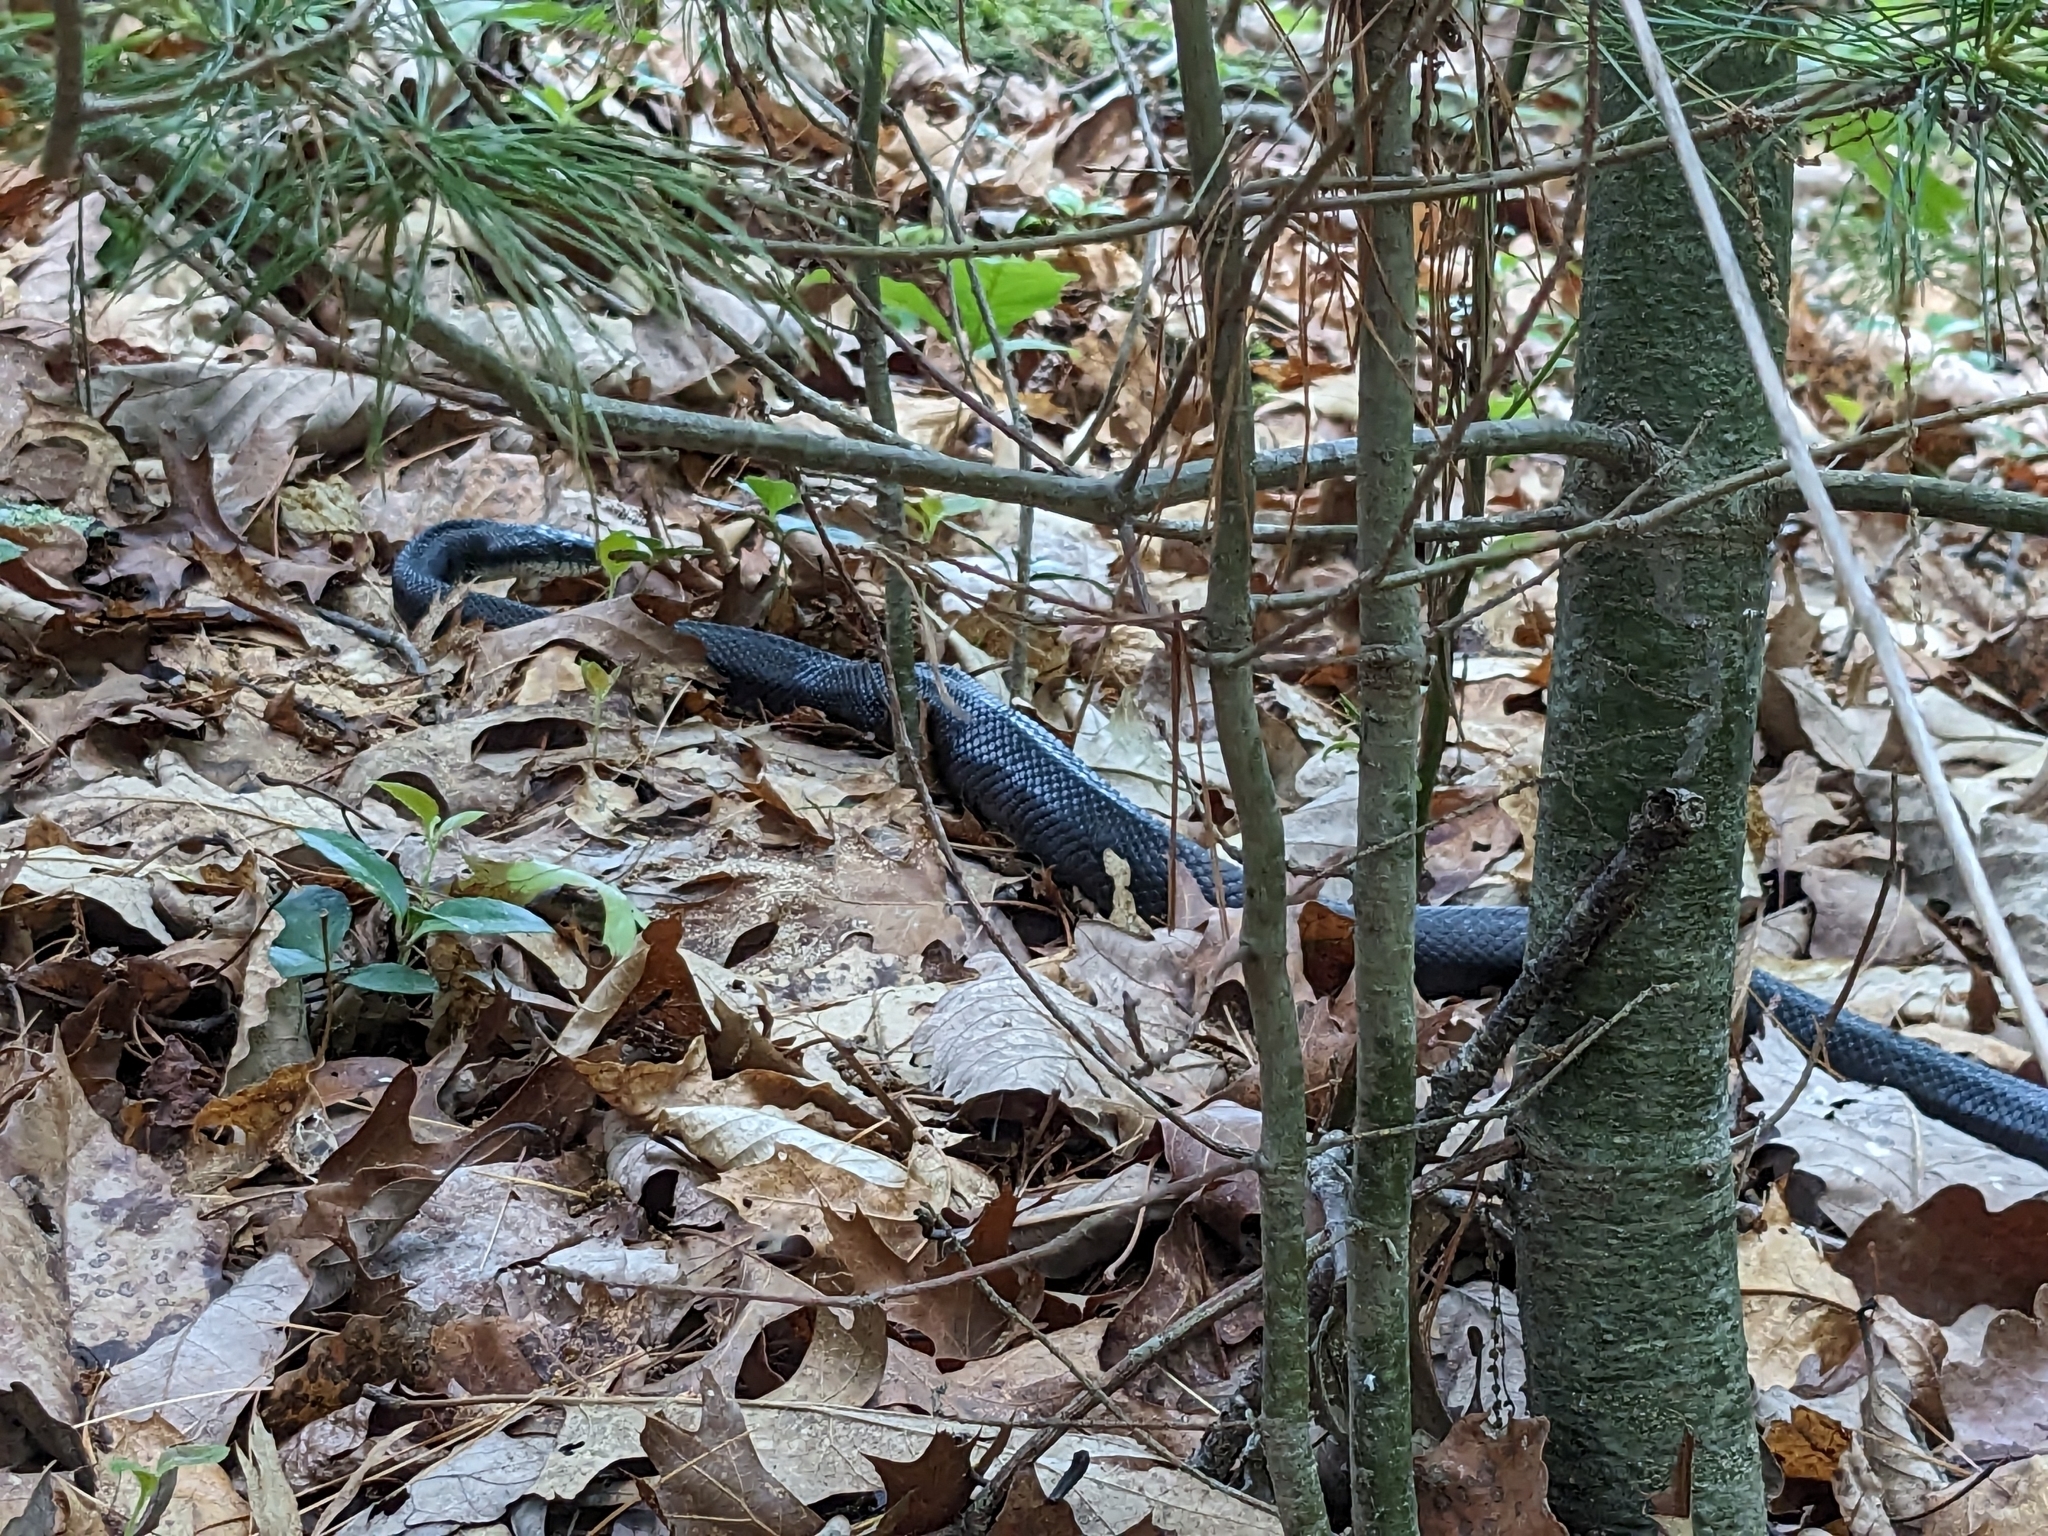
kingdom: Animalia
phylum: Chordata
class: Squamata
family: Colubridae
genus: Pantherophis
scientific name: Pantherophis alleghaniensis
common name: Eastern rat snake
